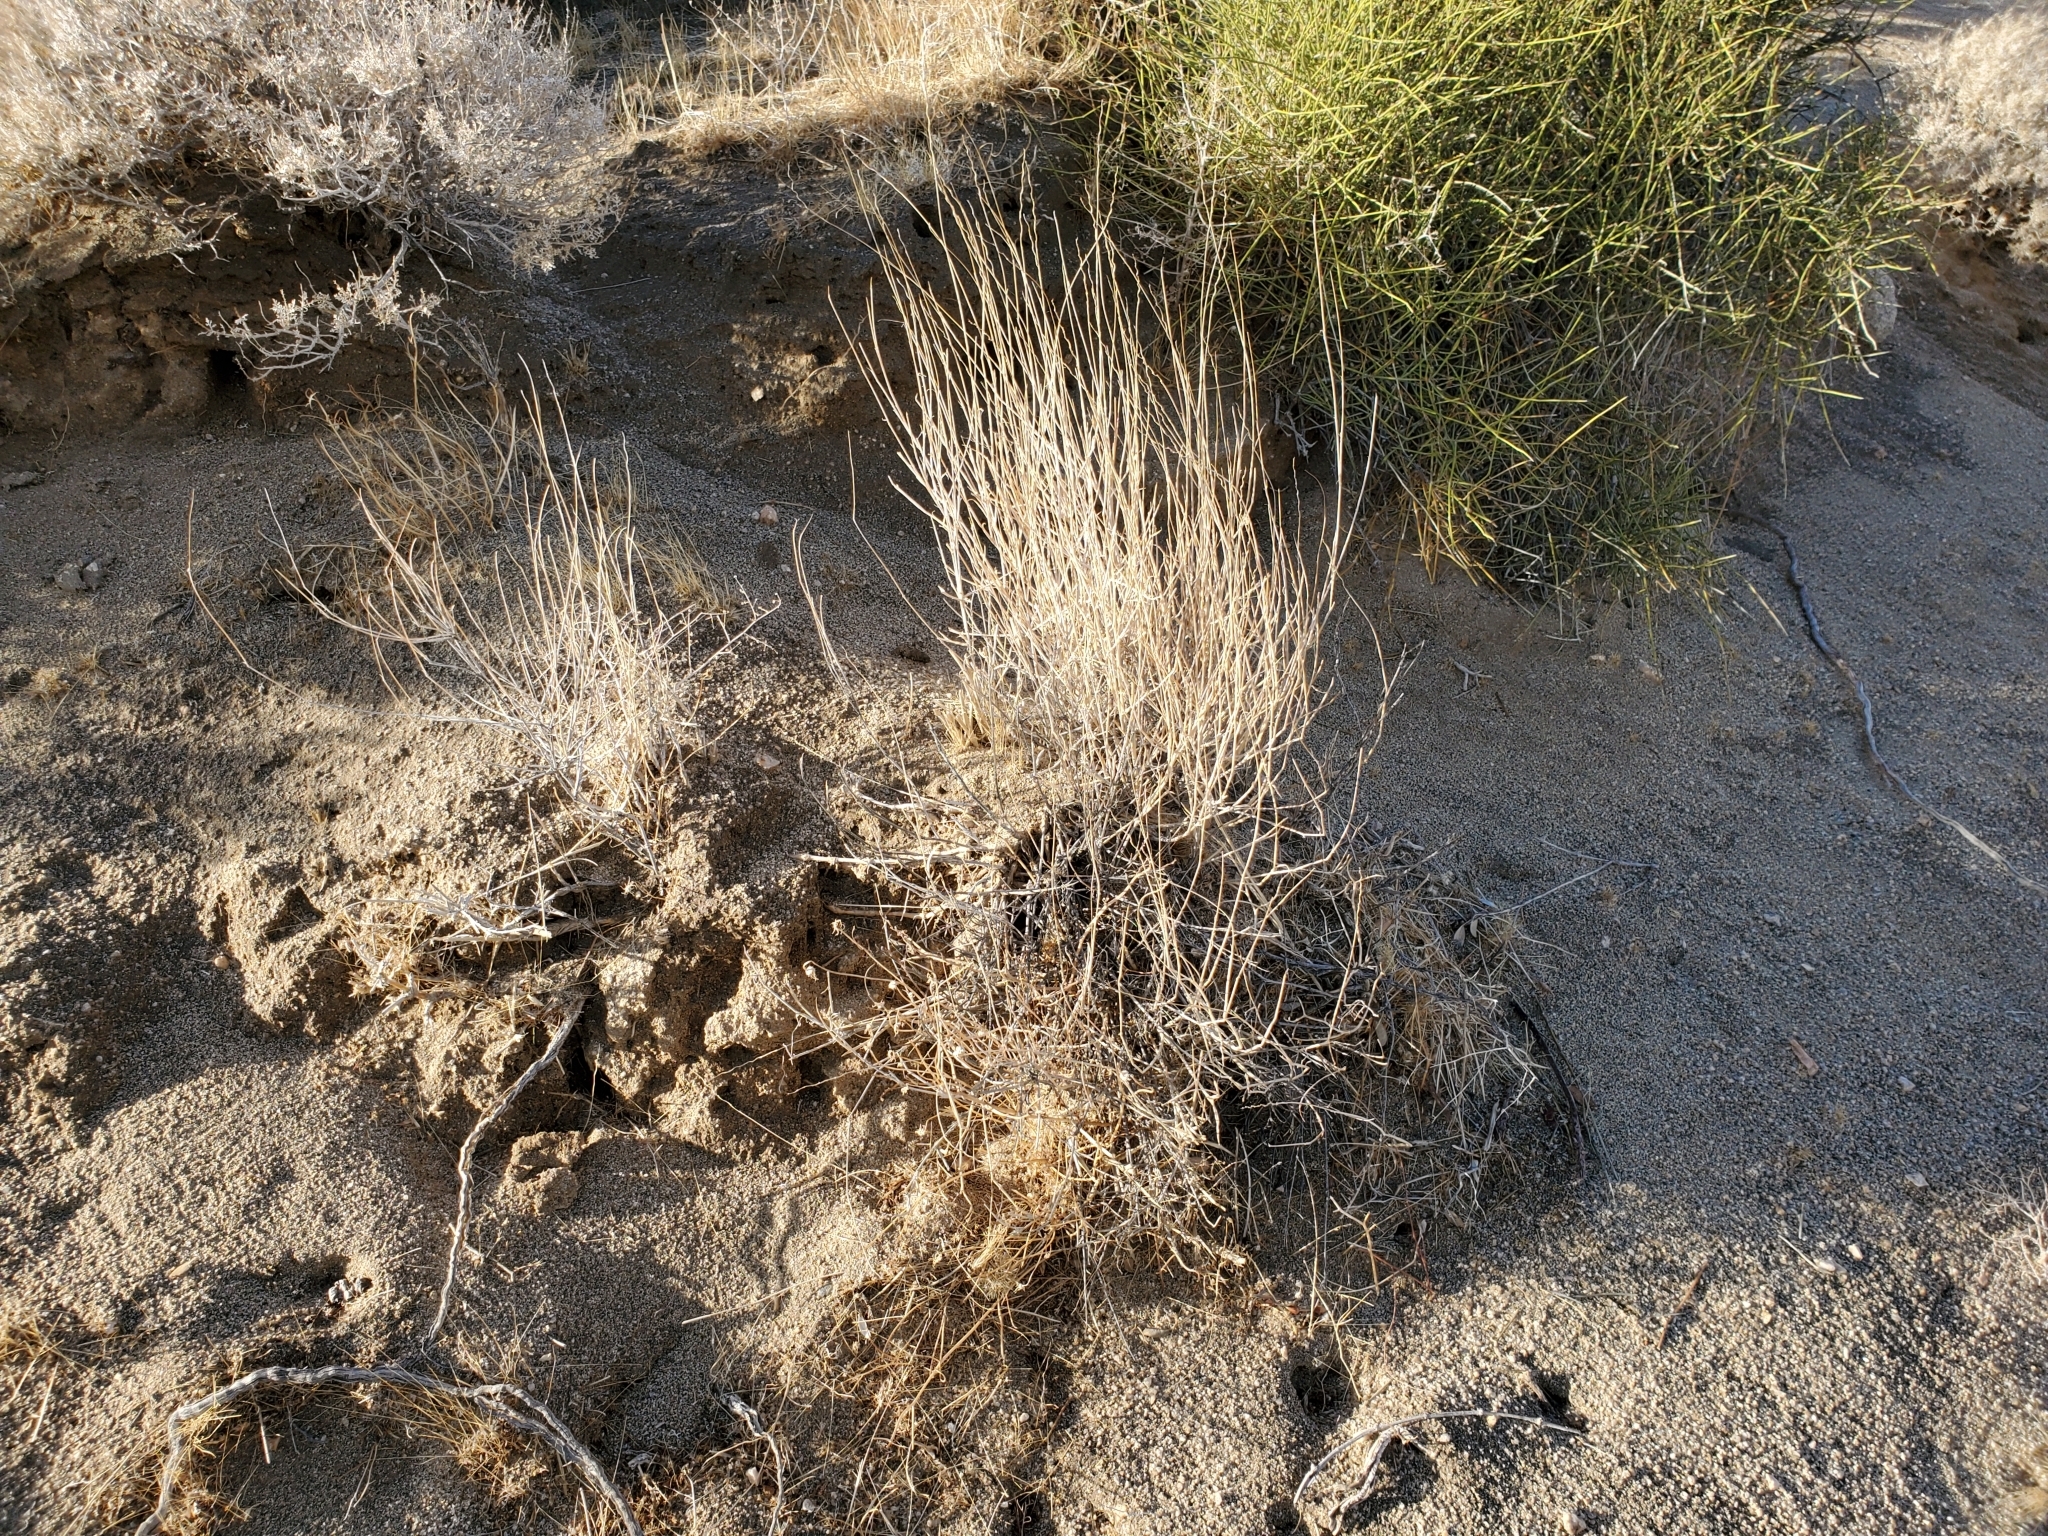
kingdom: Plantae
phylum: Tracheophyta
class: Liliopsida
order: Poales
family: Poaceae
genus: Hilaria
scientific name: Hilaria rigida
